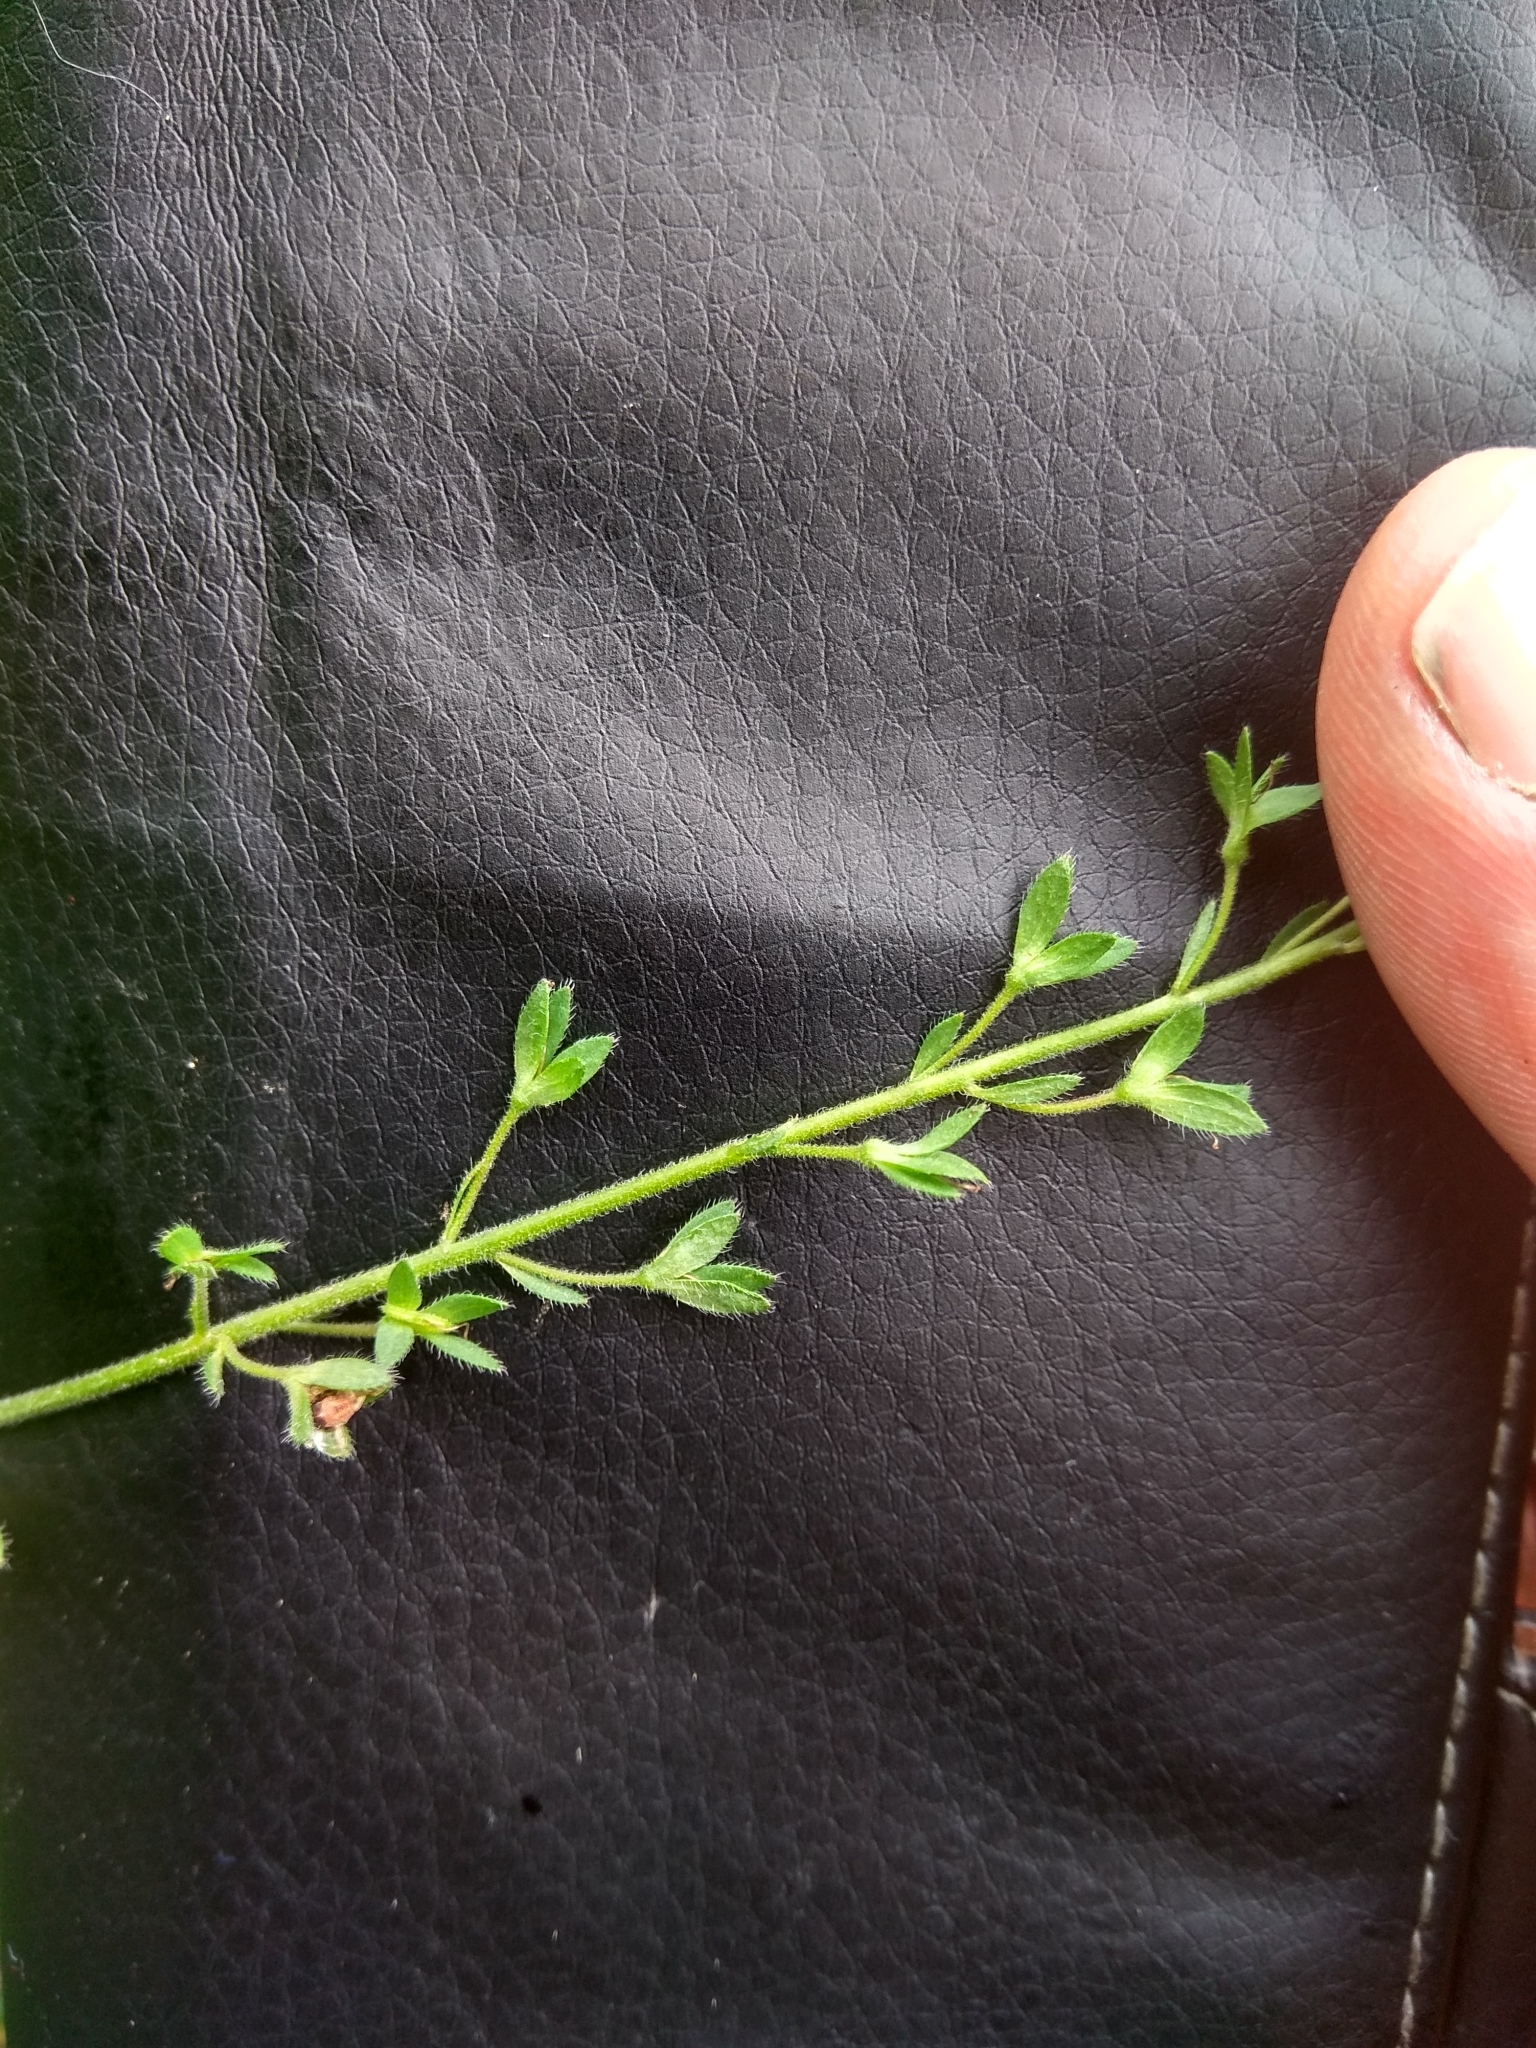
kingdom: Plantae
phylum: Tracheophyta
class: Magnoliopsida
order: Lamiales
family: Plantaginaceae
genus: Veronica
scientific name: Veronica chamaedrys
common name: Germander speedwell
